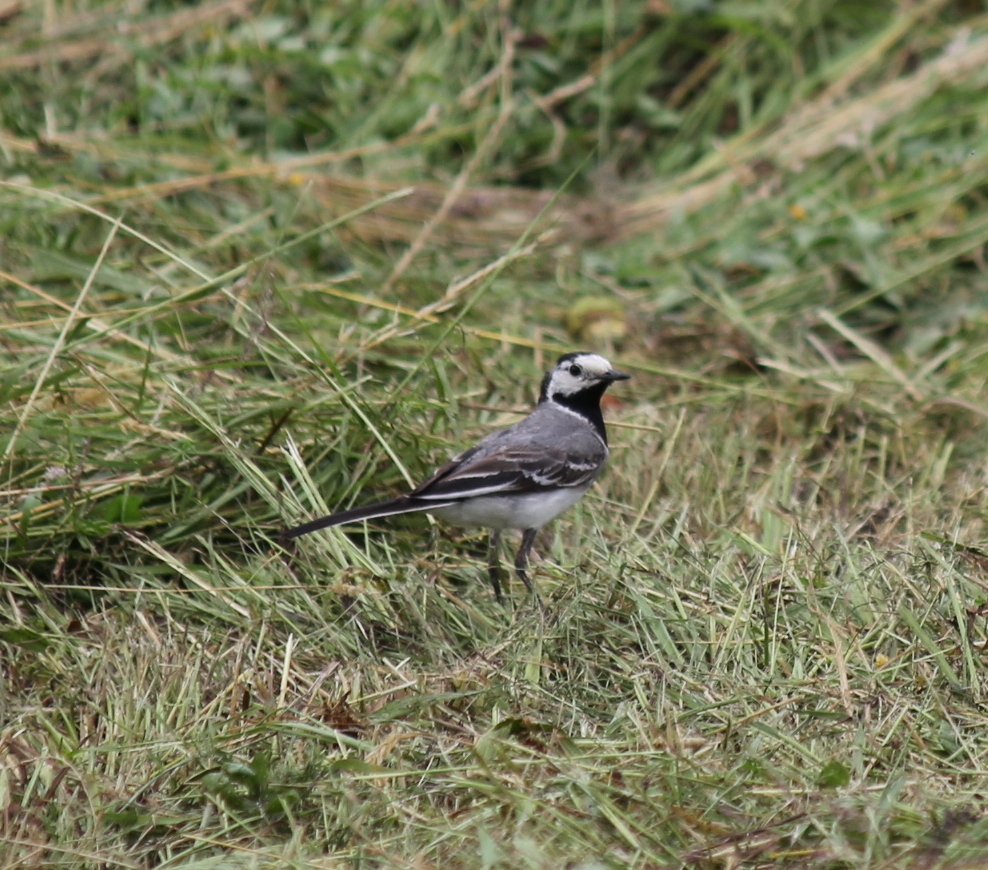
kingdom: Animalia
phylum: Chordata
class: Aves
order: Passeriformes
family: Motacillidae
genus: Motacilla
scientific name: Motacilla alba
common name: White wagtail
